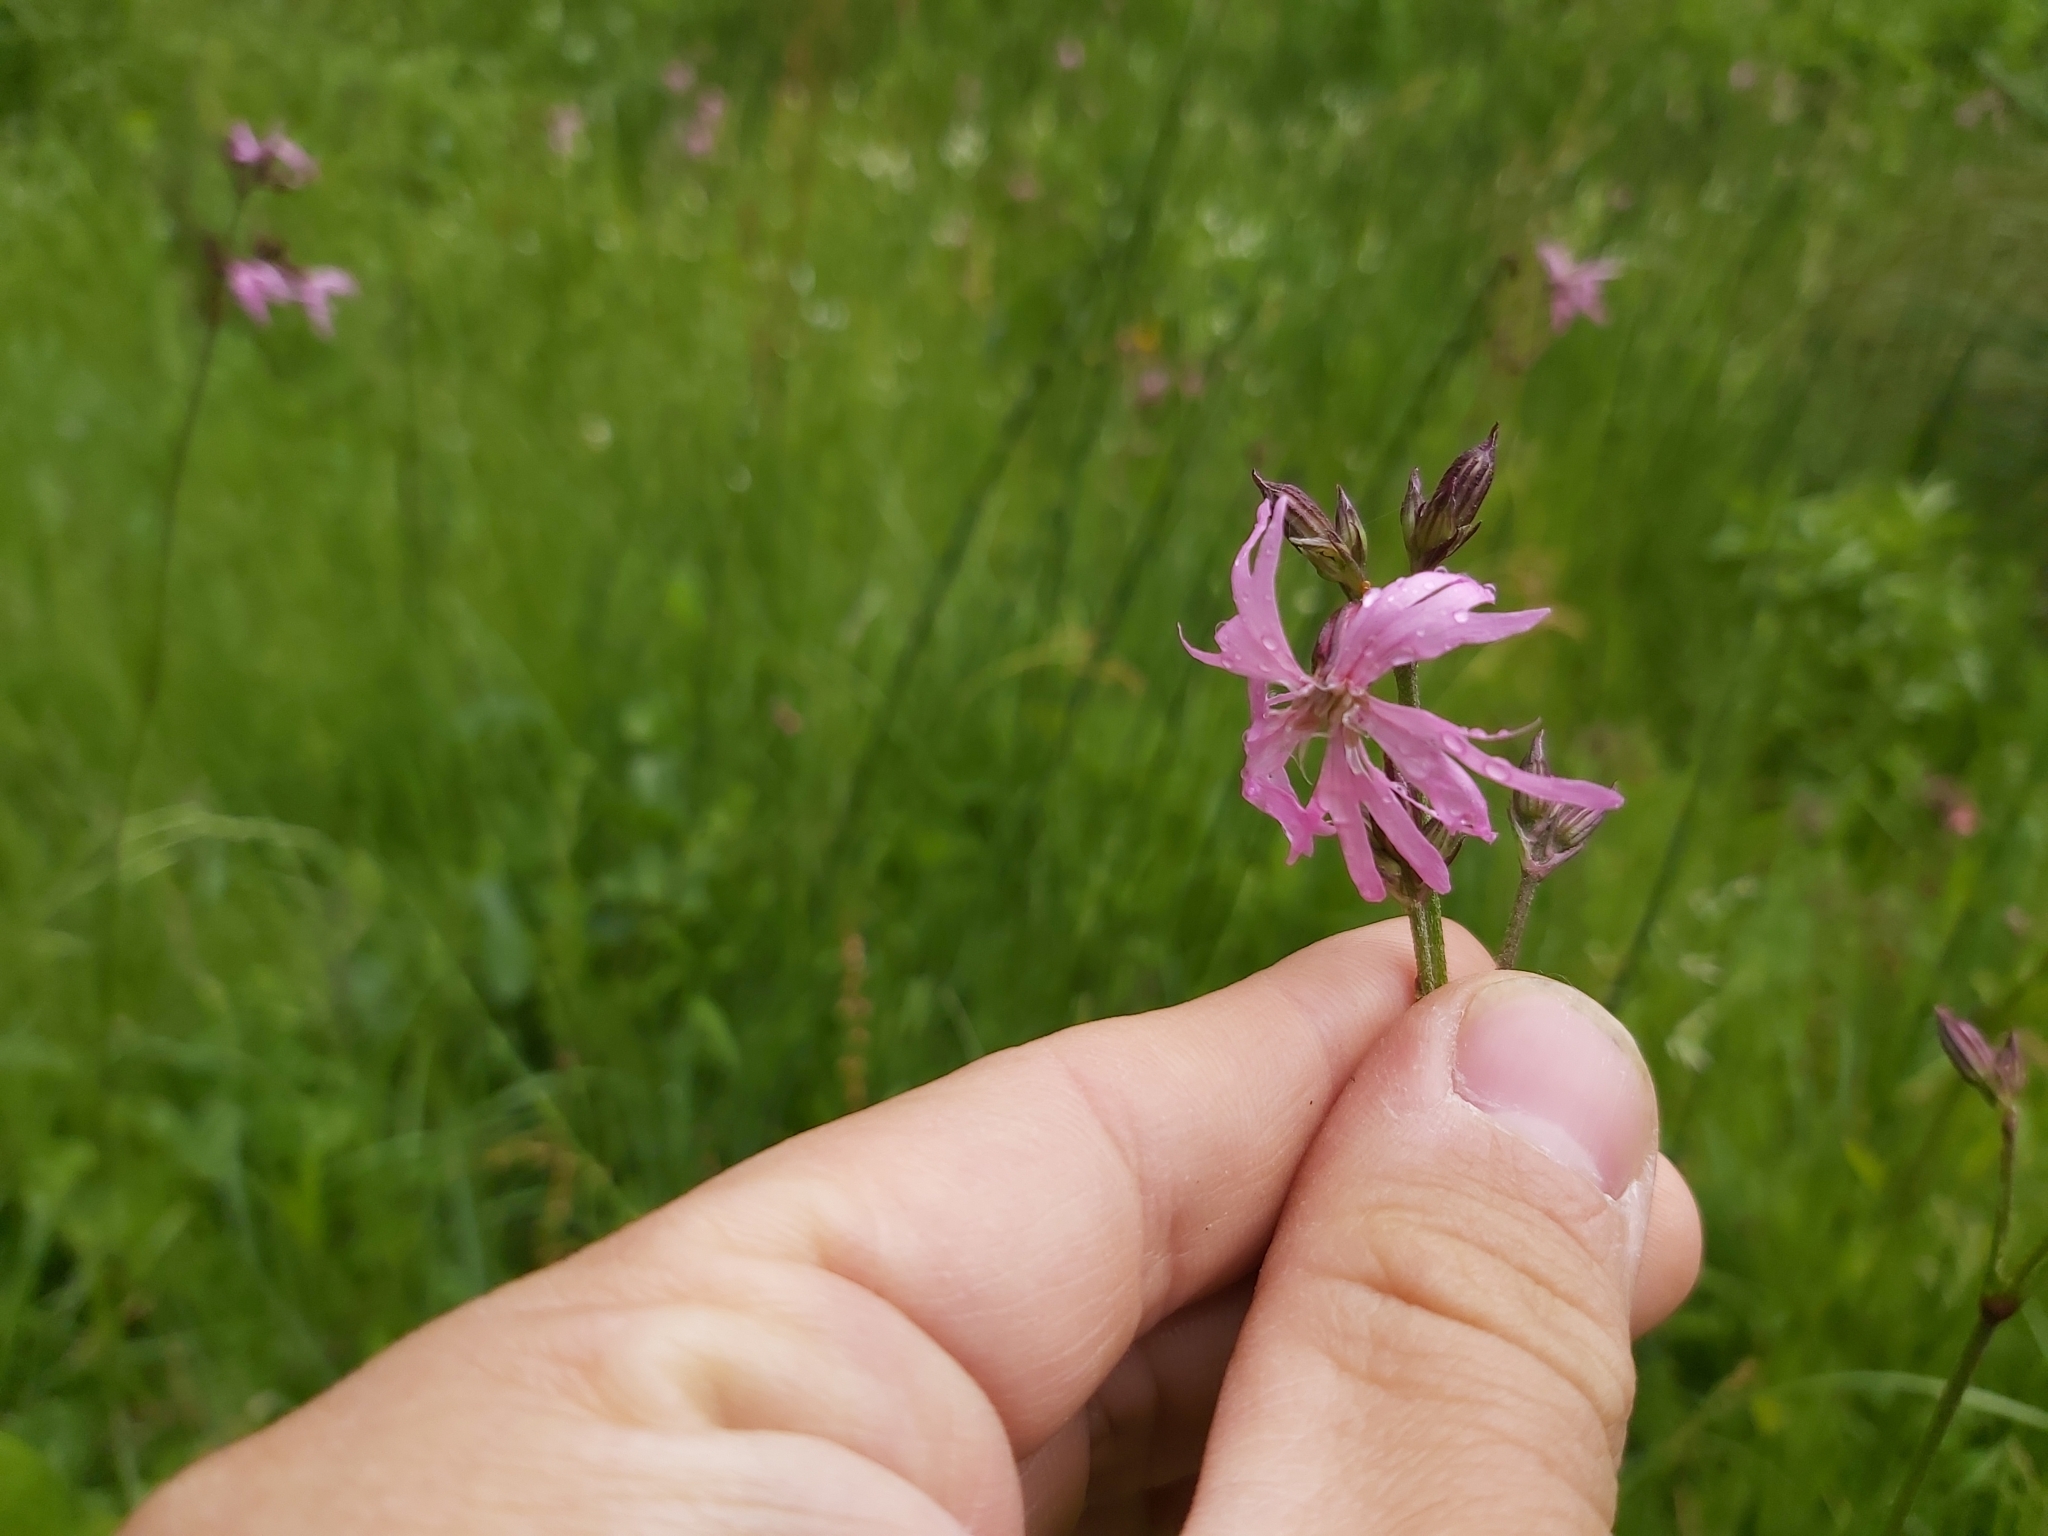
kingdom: Plantae
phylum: Tracheophyta
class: Magnoliopsida
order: Caryophyllales
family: Caryophyllaceae
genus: Silene
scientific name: Silene flos-cuculi
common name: Ragged-robin
